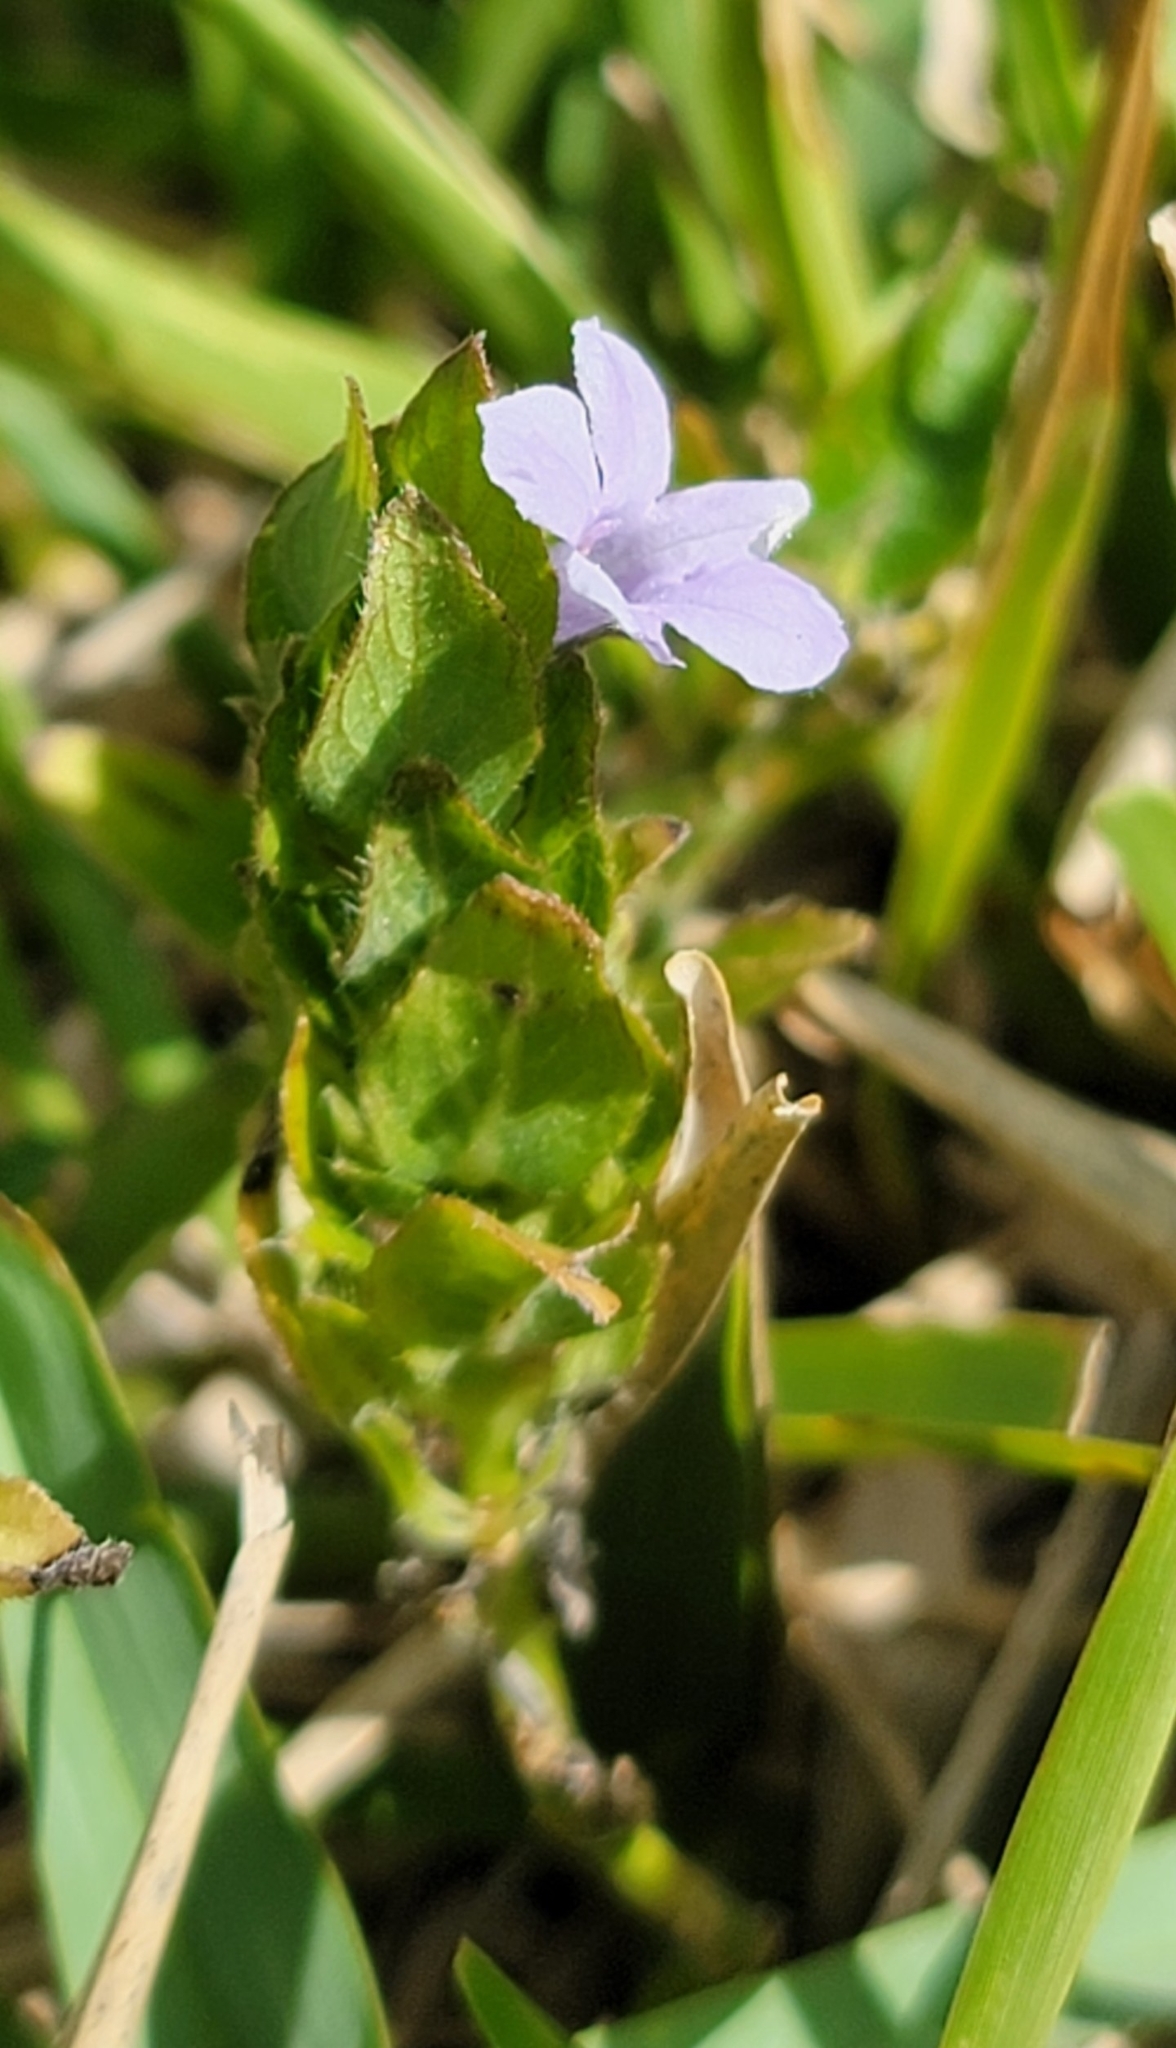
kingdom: Plantae
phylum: Tracheophyta
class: Magnoliopsida
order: Lamiales
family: Acanthaceae
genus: Ruellia
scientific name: Ruellia blechum
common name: Browne's blechum
